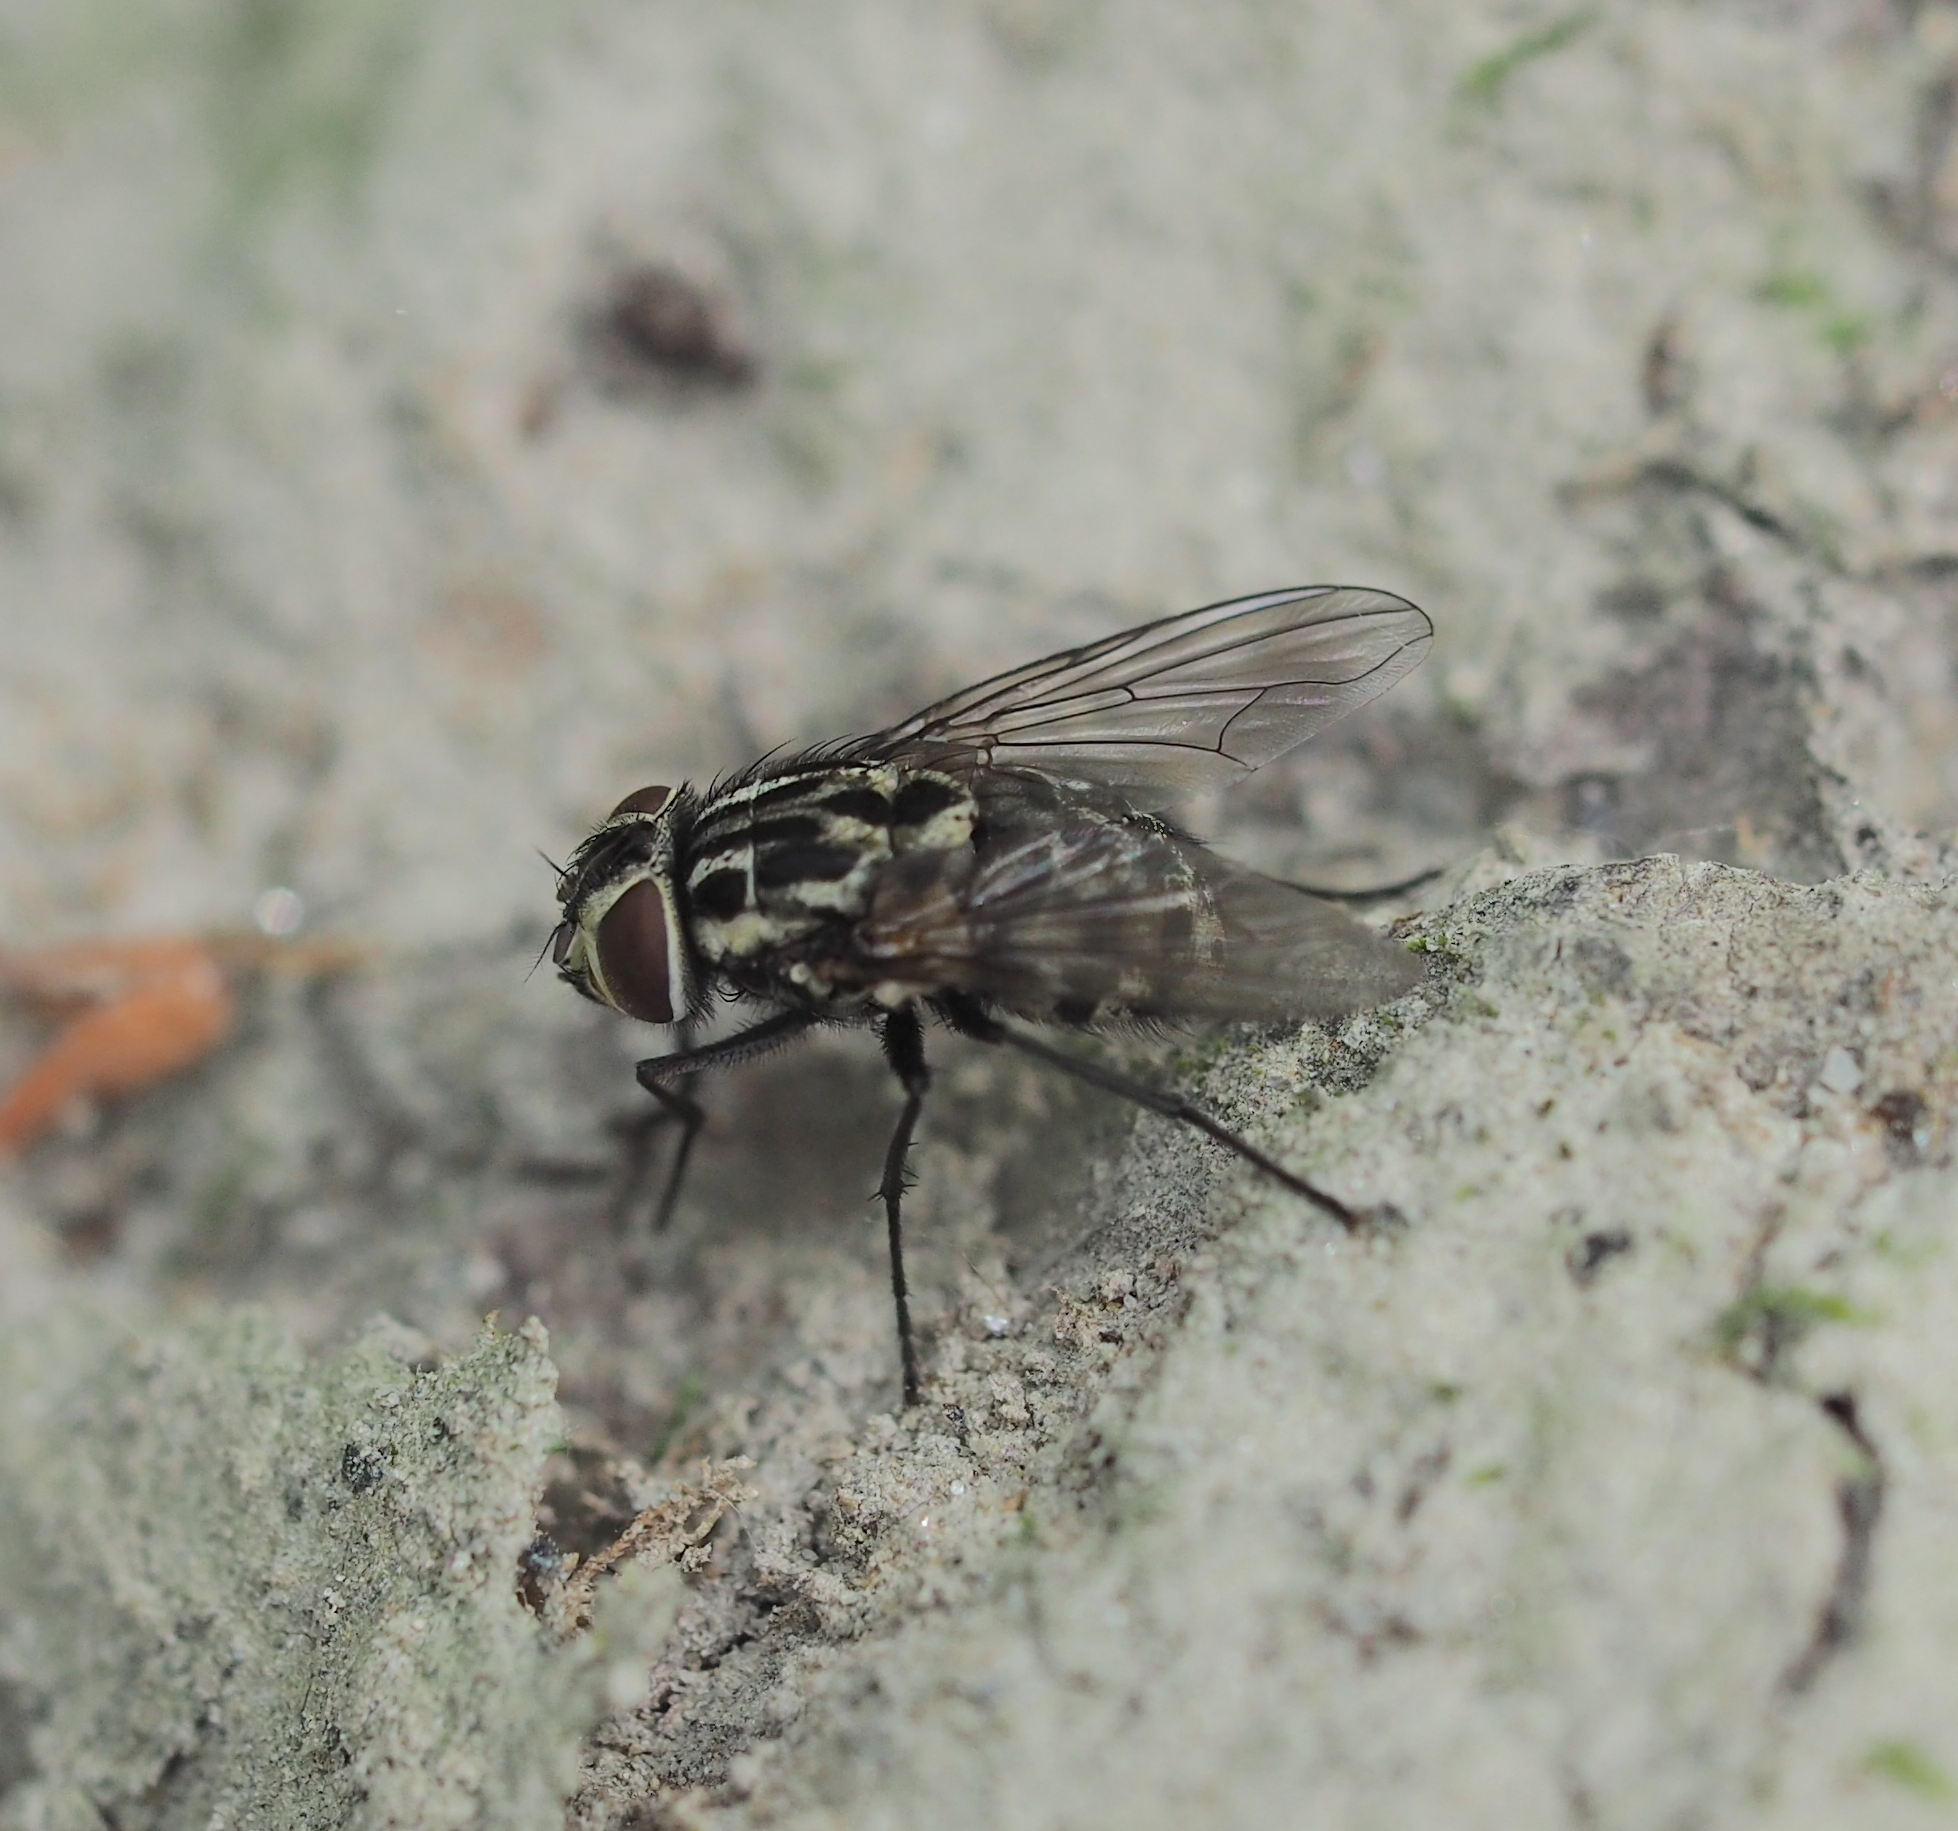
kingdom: Animalia
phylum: Arthropoda
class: Insecta
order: Diptera
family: Muscidae
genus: Graphomya
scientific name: Graphomya maculata
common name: Muscid fly
